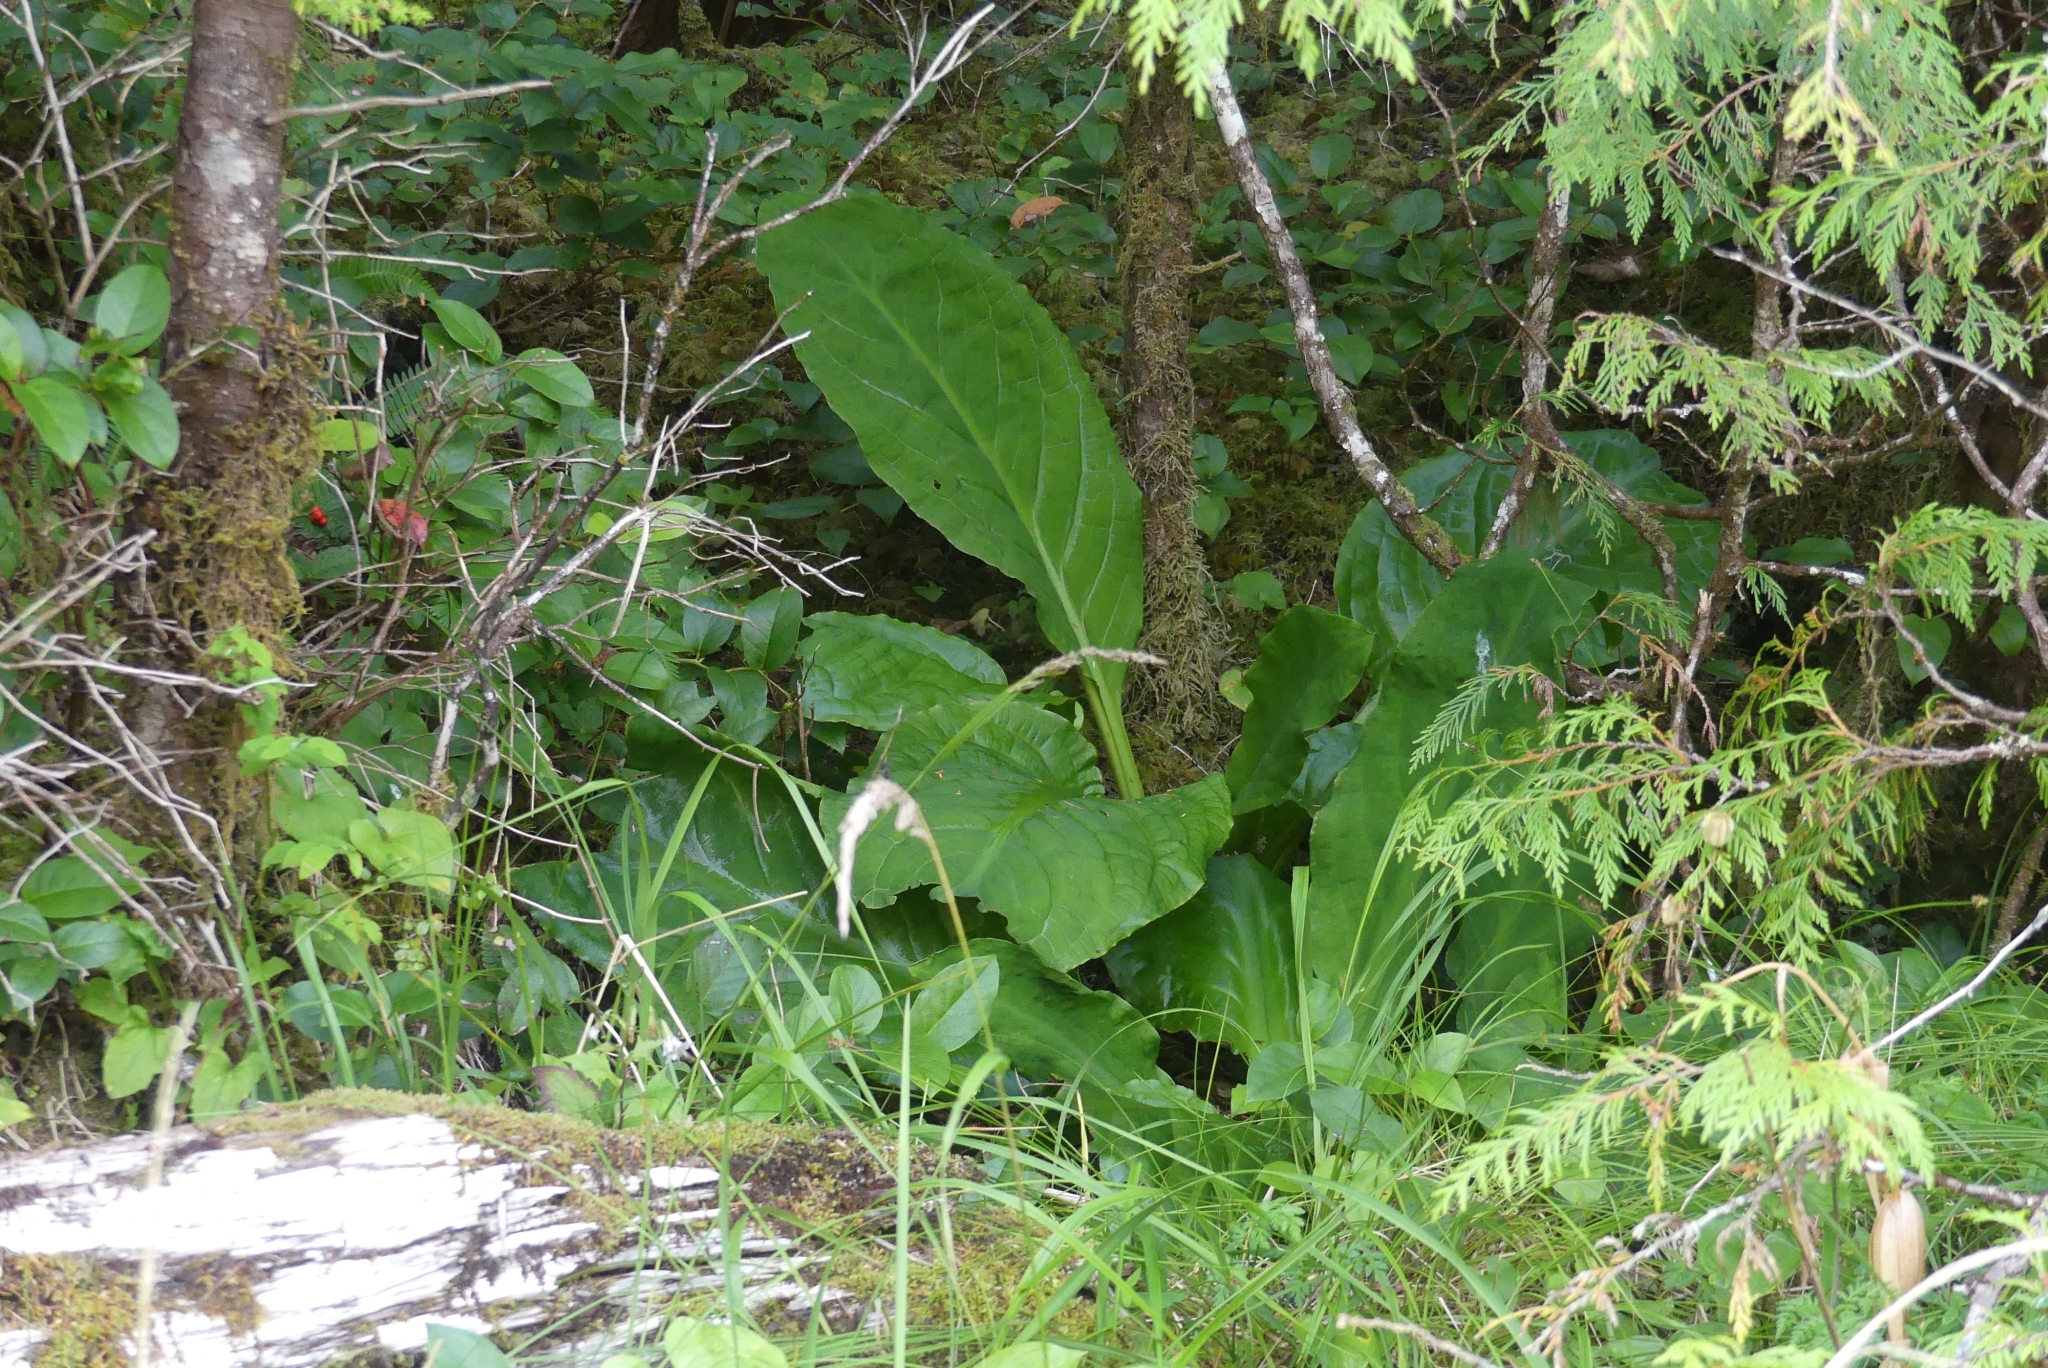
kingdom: Plantae
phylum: Tracheophyta
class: Liliopsida
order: Alismatales
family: Araceae
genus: Lysichiton
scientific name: Lysichiton americanus
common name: American skunk cabbage
